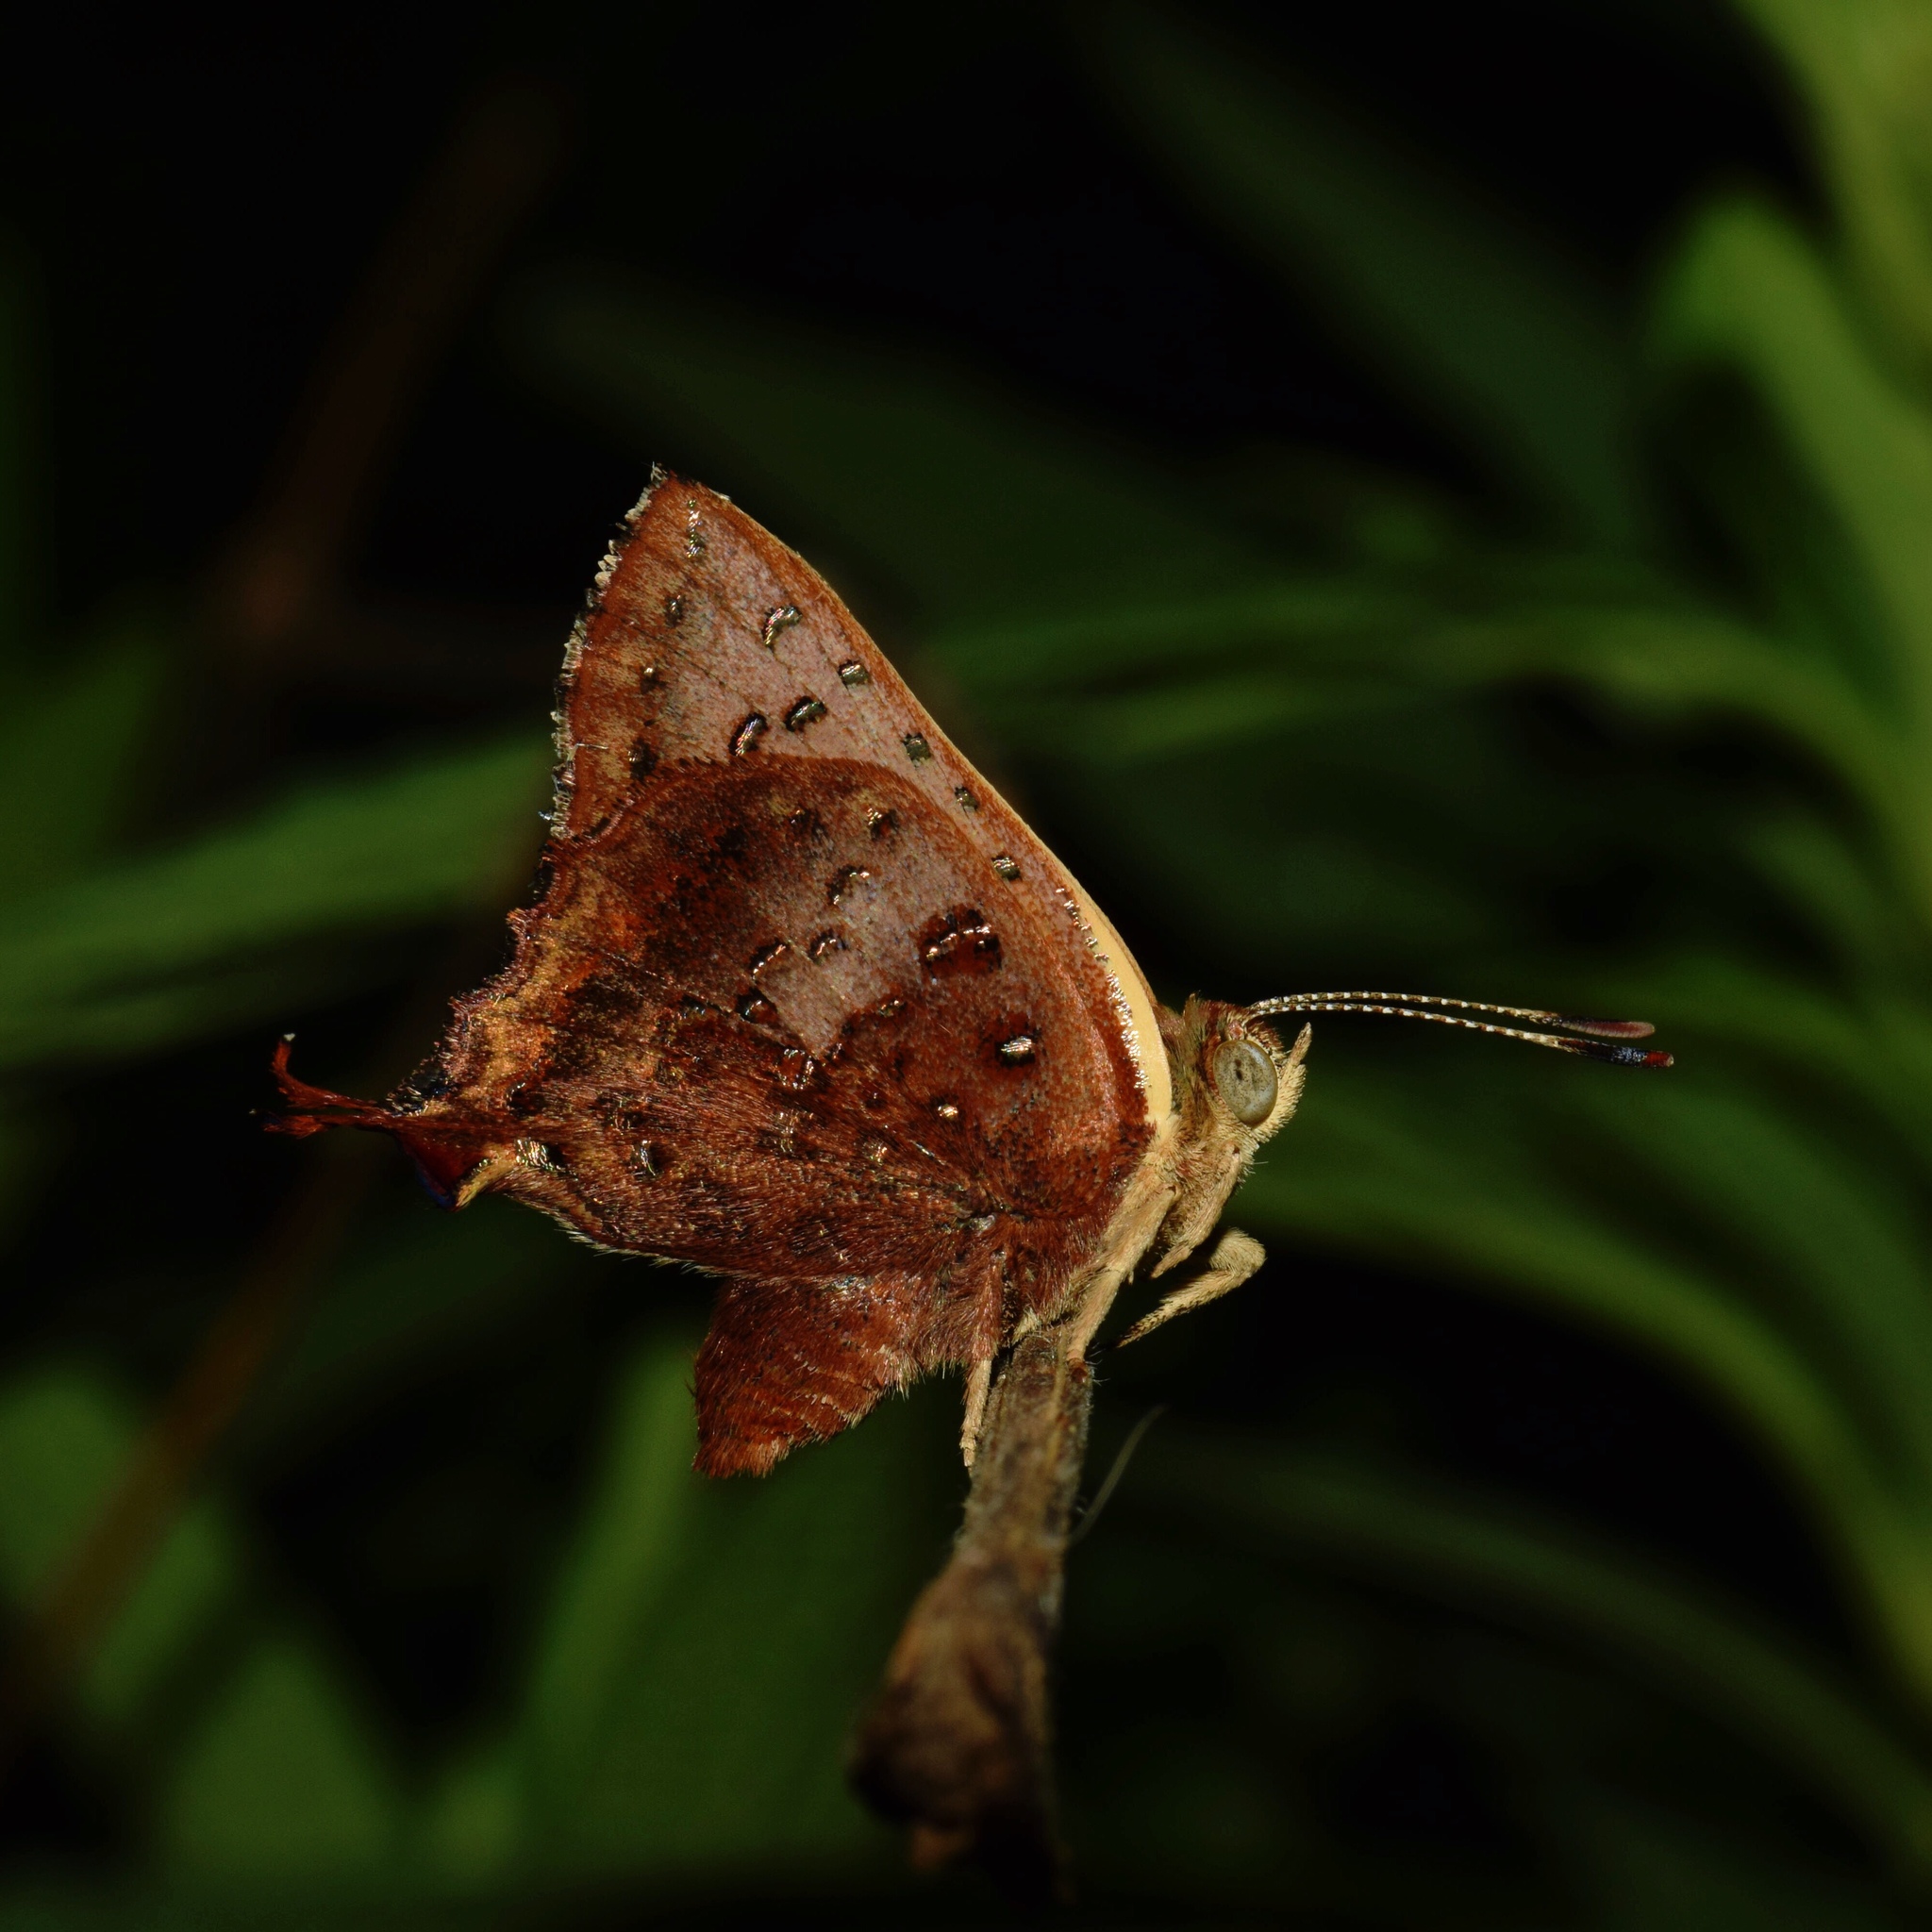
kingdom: Animalia
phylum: Arthropoda
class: Insecta
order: Lepidoptera
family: Lycaenidae
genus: Axiocerses
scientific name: Axiocerses perion
